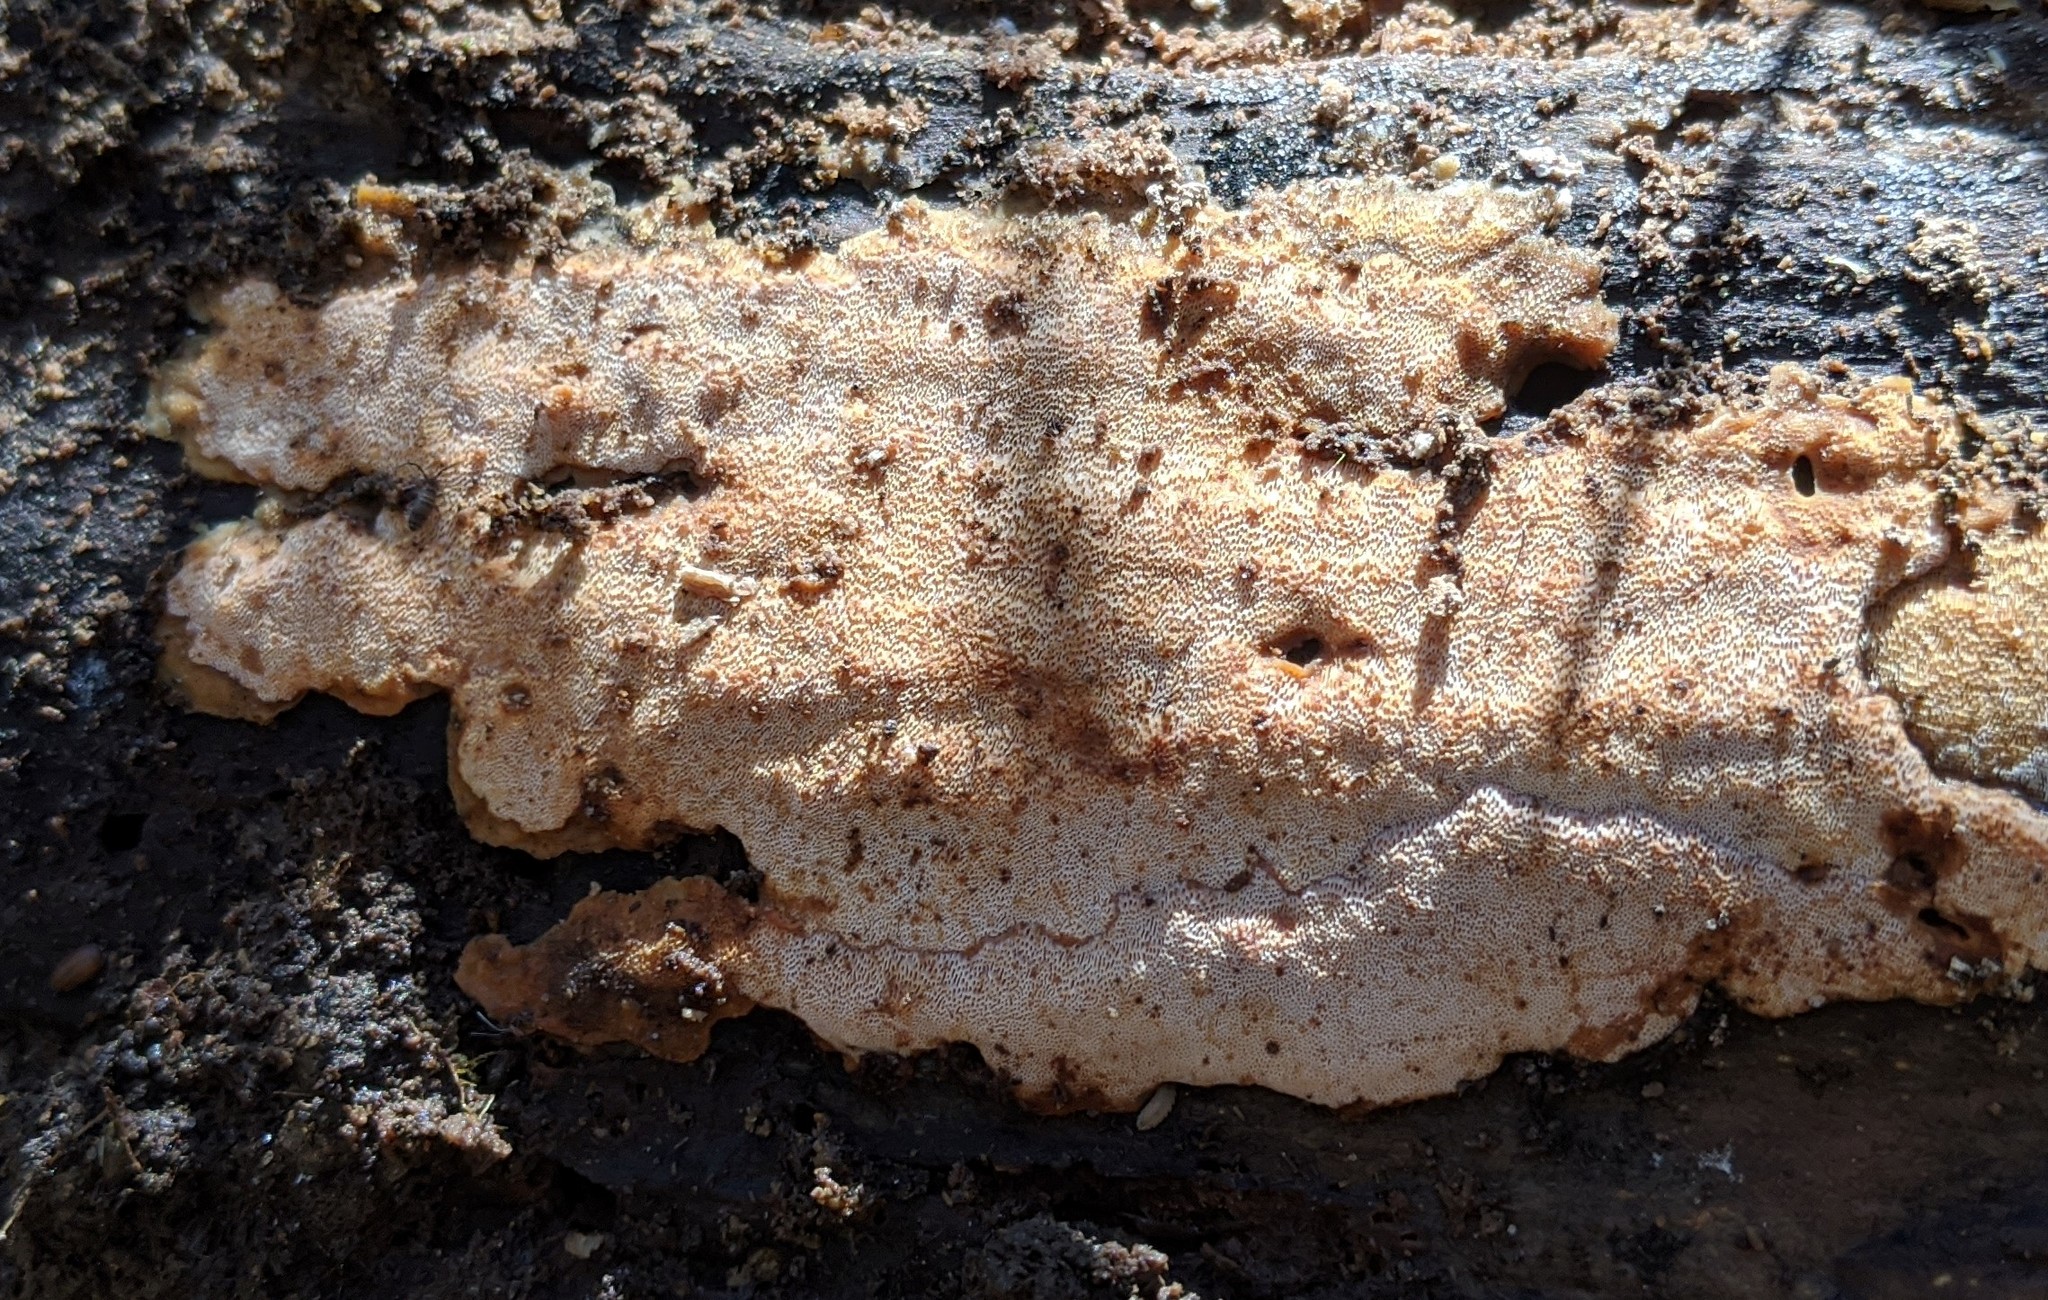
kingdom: Fungi
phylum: Basidiomycota
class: Agaricomycetes
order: Polyporales
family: Meripilaceae
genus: Rigidoporus
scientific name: Rigidoporus crocatus
